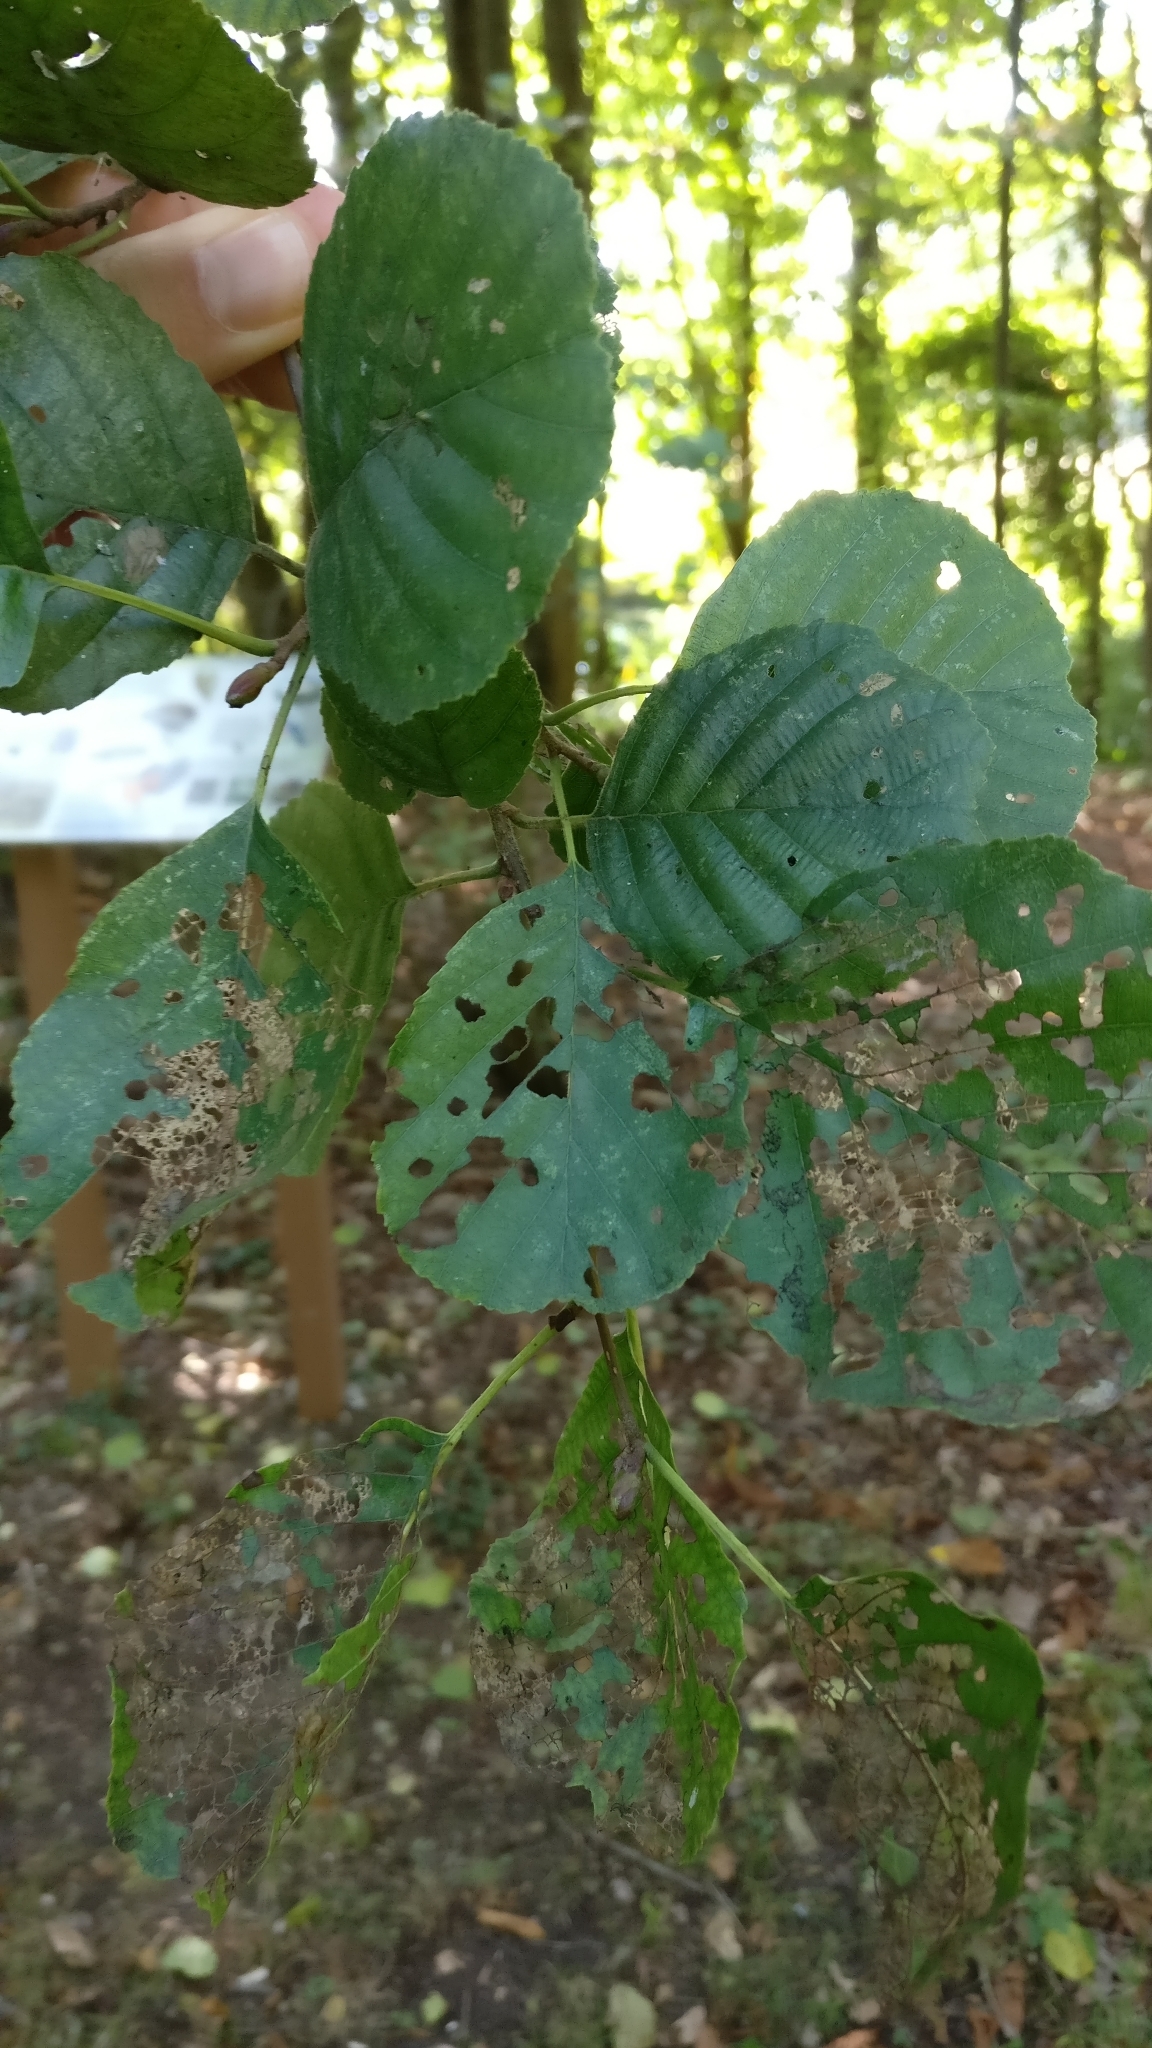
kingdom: Plantae
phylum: Tracheophyta
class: Magnoliopsida
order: Fagales
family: Betulaceae
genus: Alnus
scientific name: Alnus glutinosa
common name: Black alder
